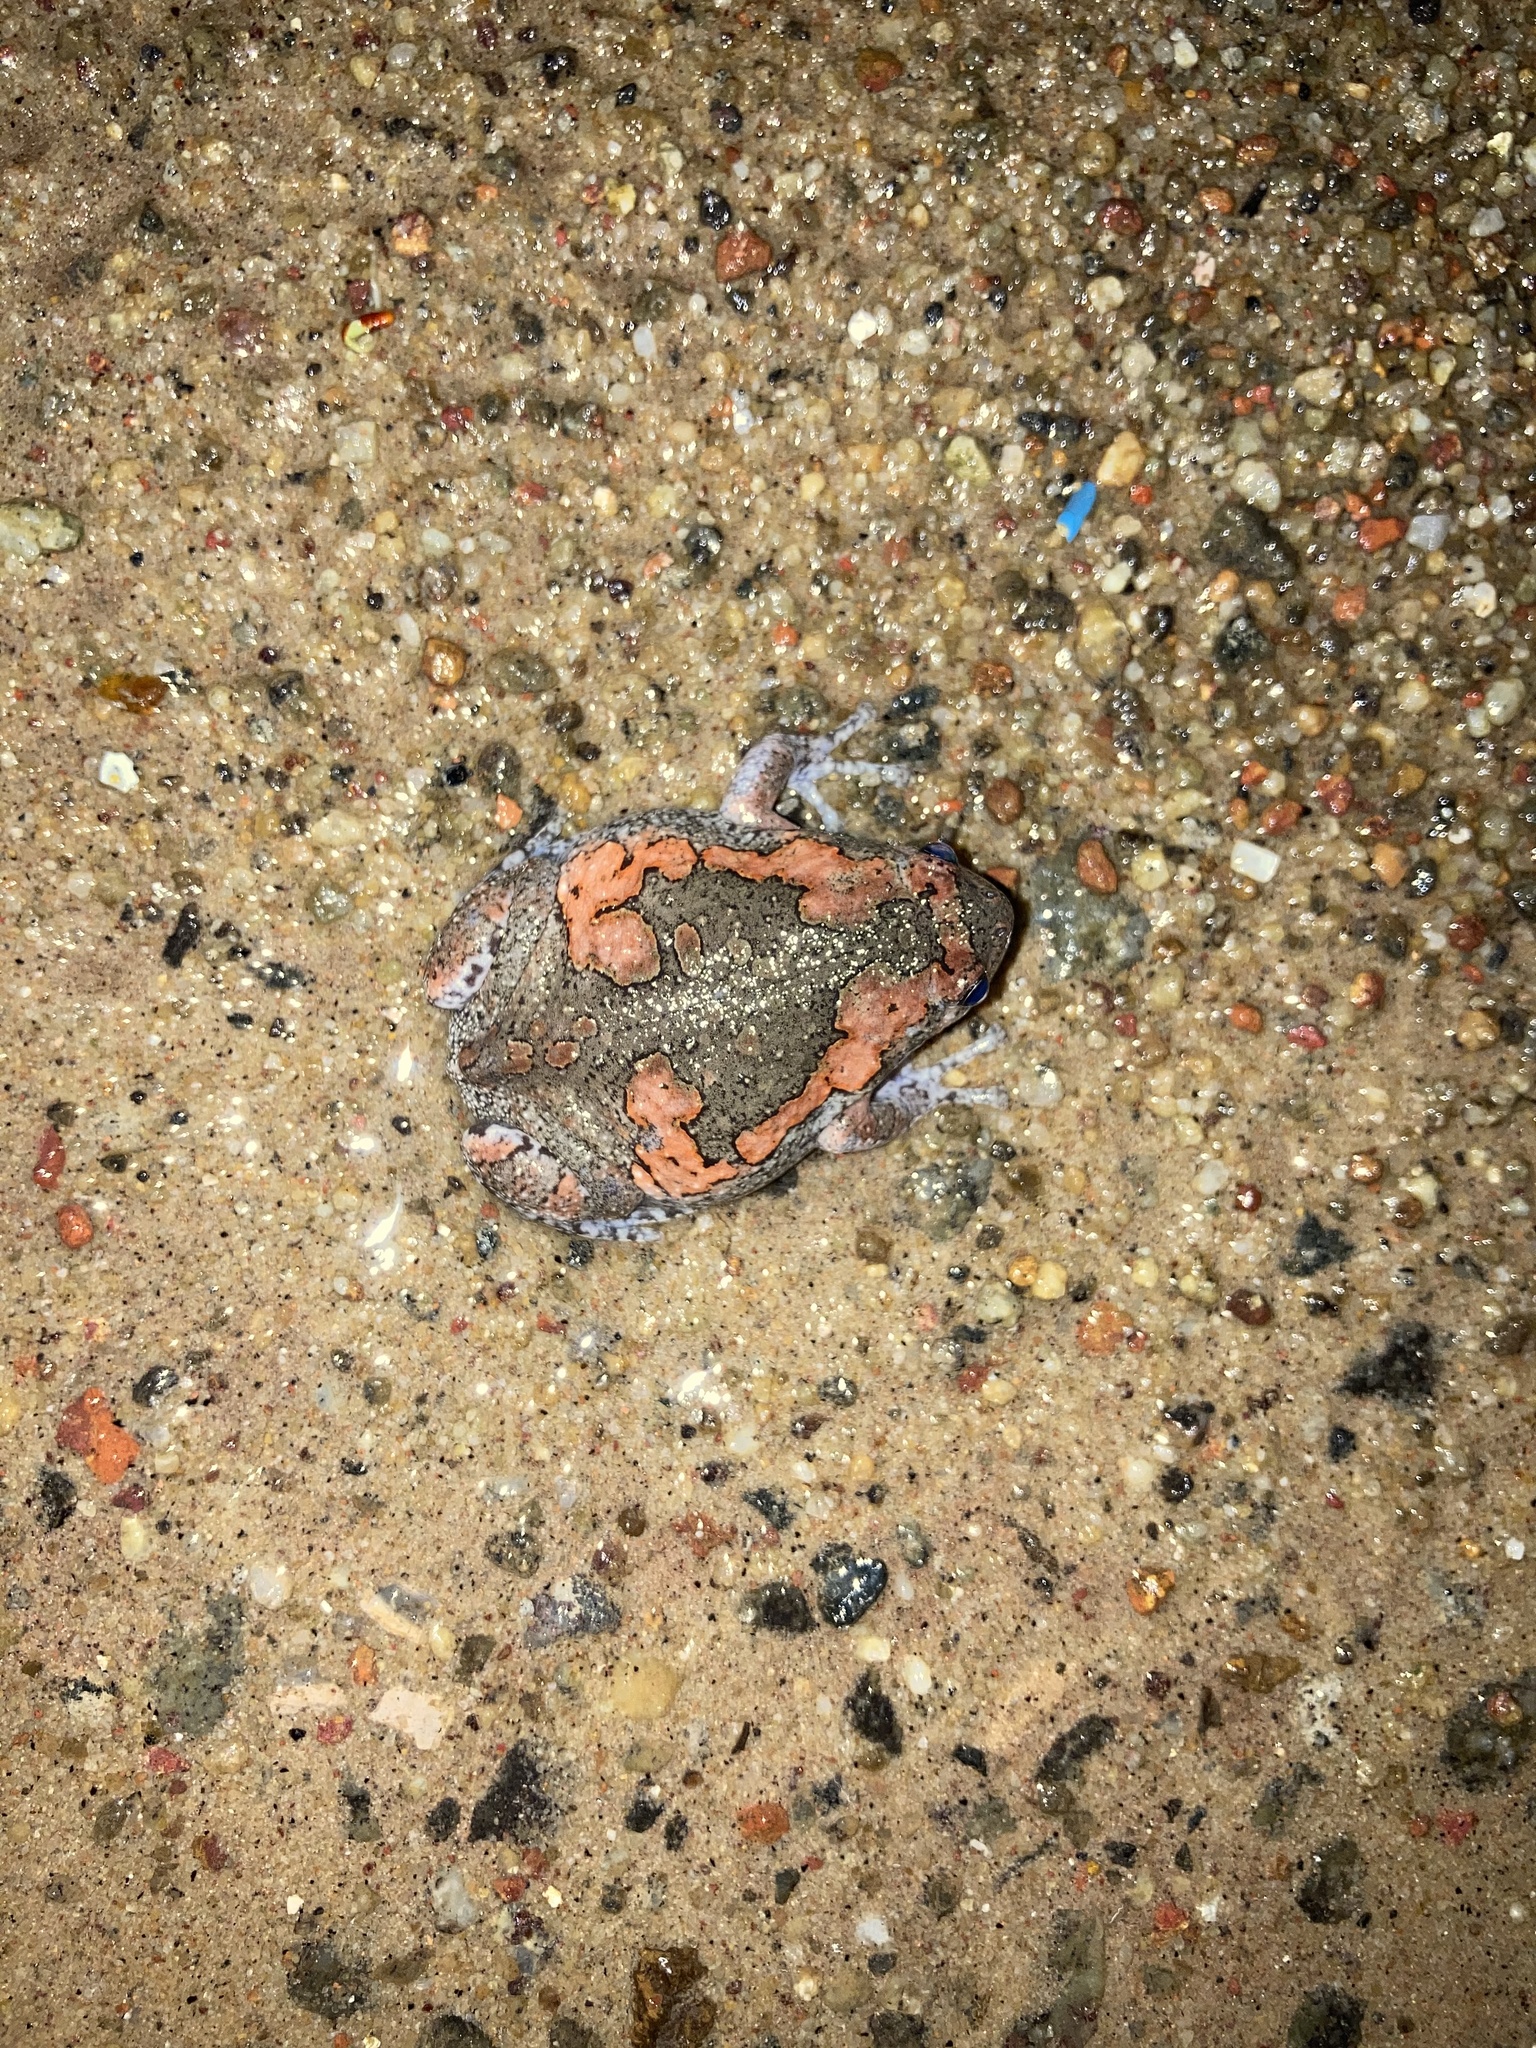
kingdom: Animalia
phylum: Chordata
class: Amphibia
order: Anura
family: Microhylidae
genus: Uperodon
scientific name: Uperodon taprobanicus
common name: Ceylon kaloula
